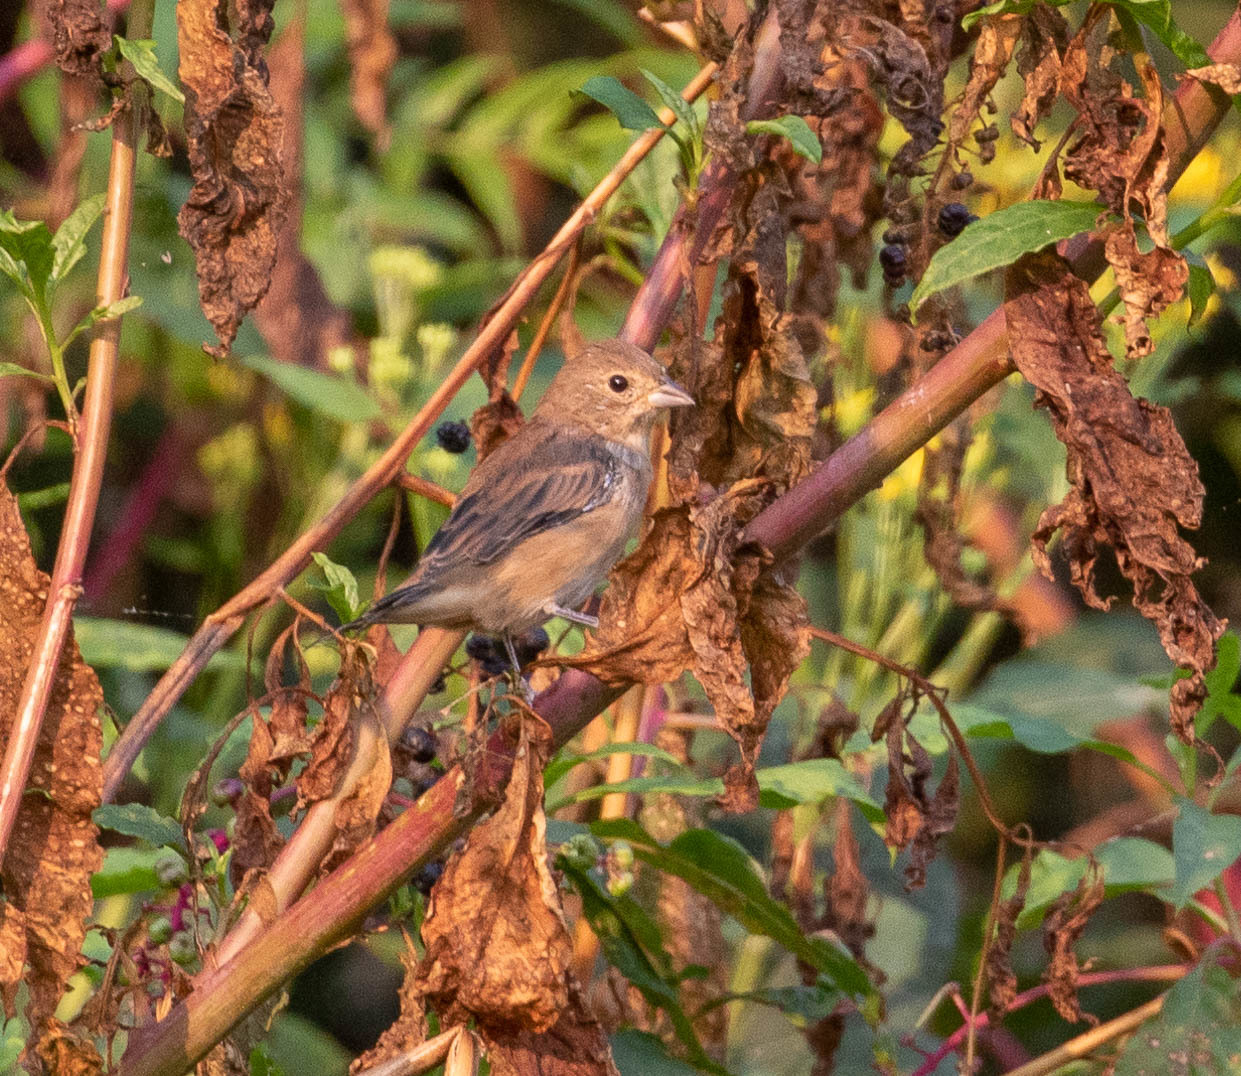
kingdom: Animalia
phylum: Chordata
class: Aves
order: Passeriformes
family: Cardinalidae
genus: Passerina
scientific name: Passerina cyanea
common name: Indigo bunting
